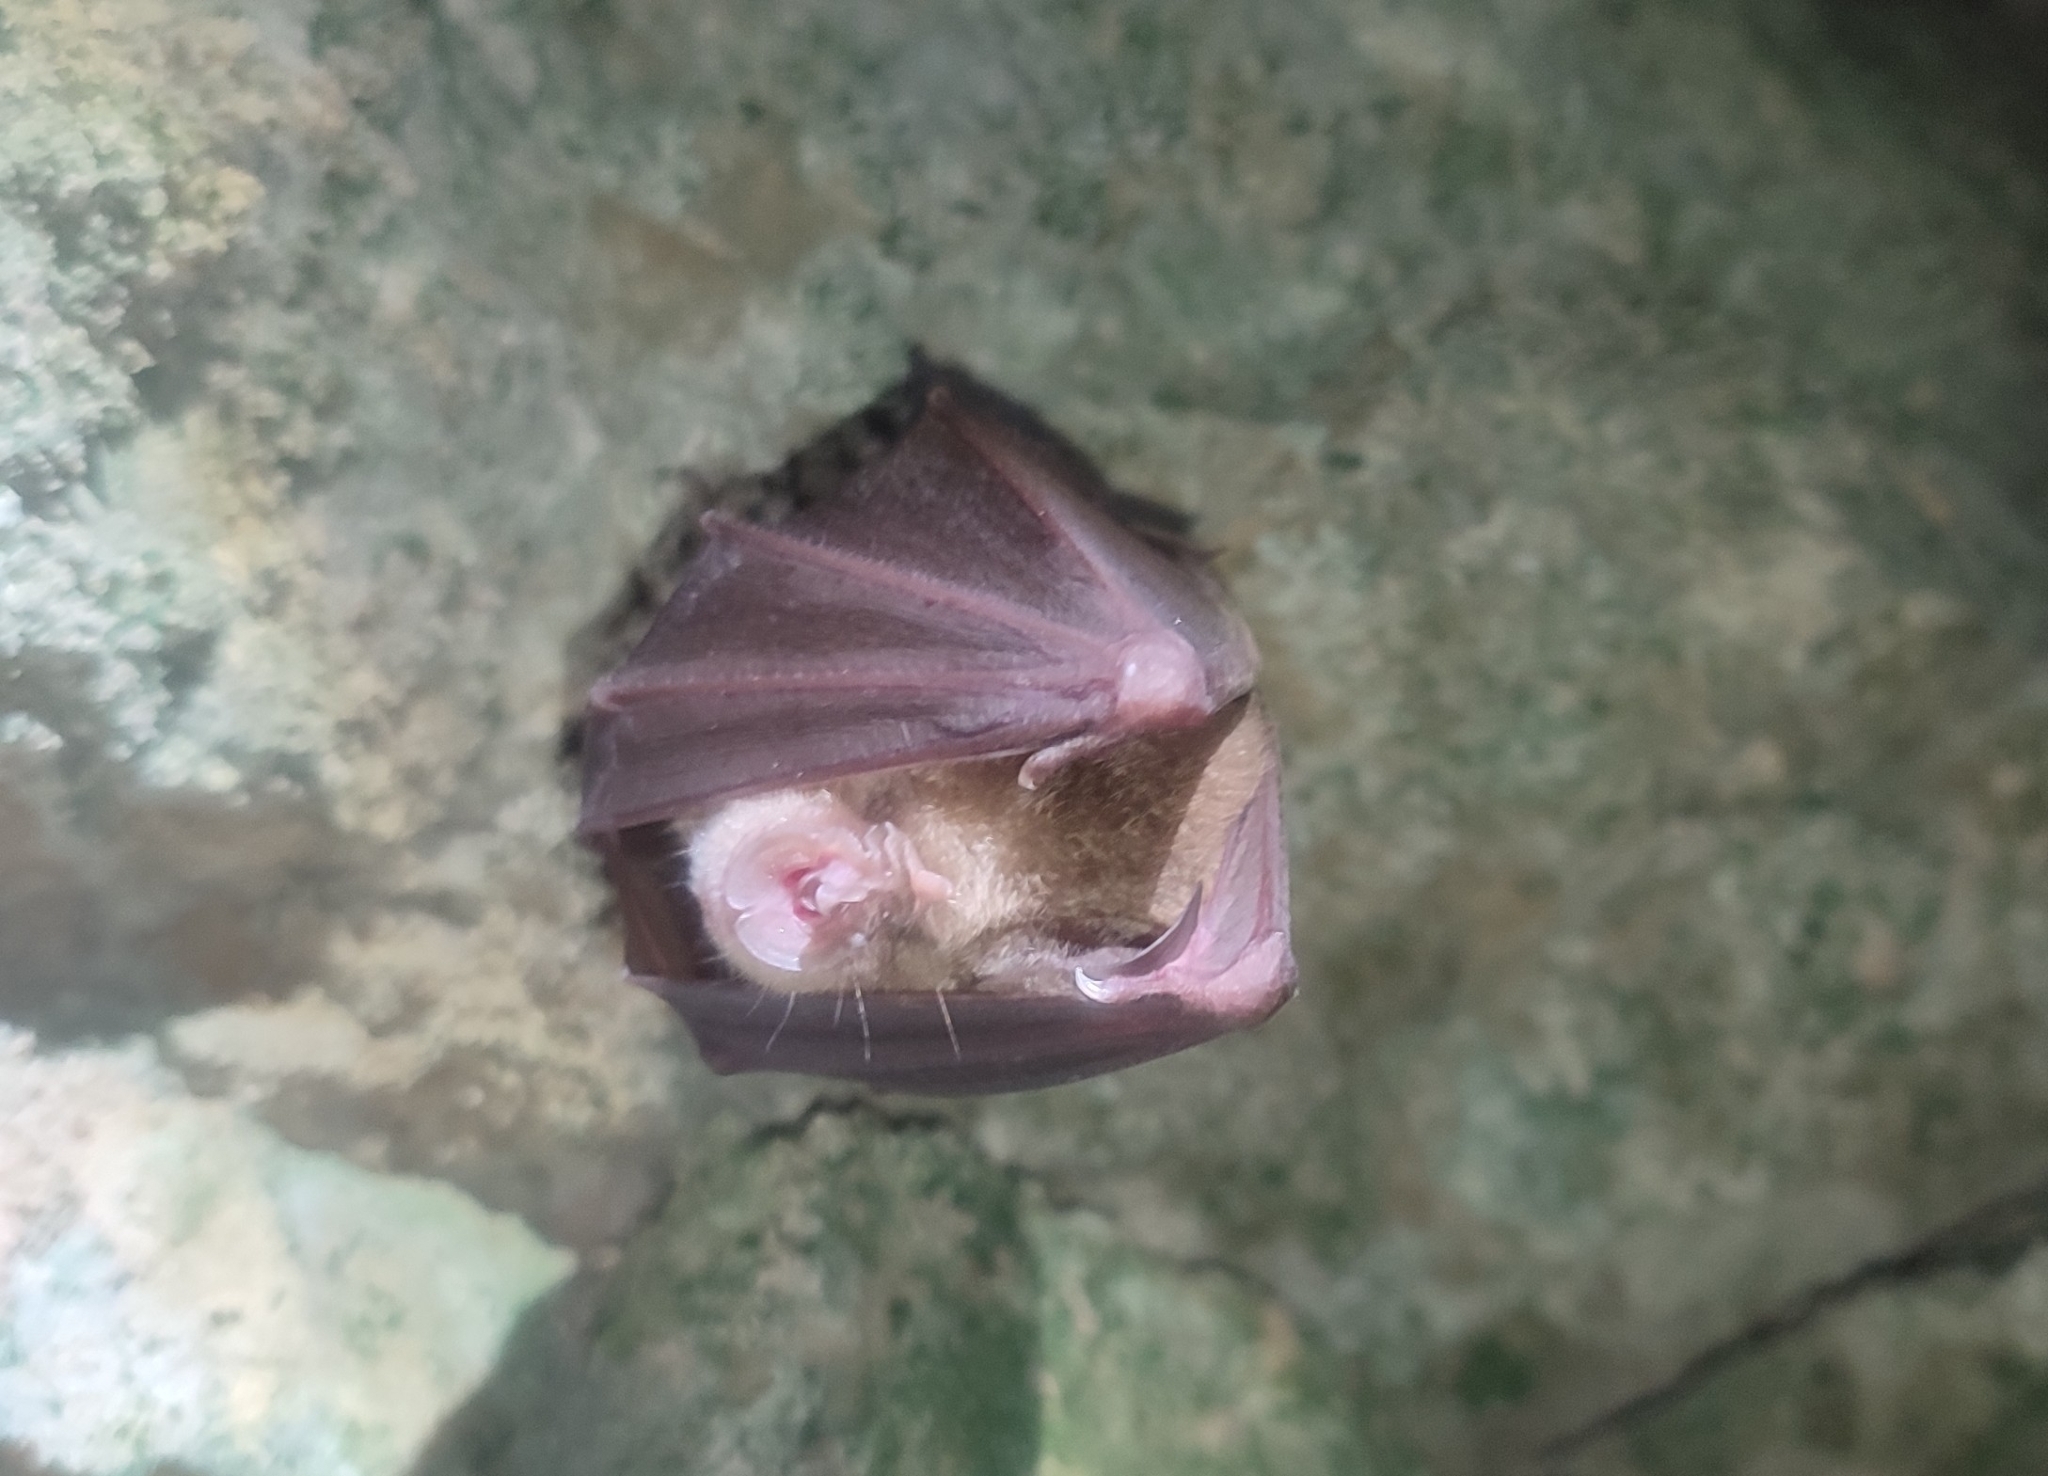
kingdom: Animalia
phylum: Chordata
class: Mammalia
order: Chiroptera
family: Rhinolophidae
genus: Rhinolophus
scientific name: Rhinolophus ferrumequinum
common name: Greater horseshoe bat
